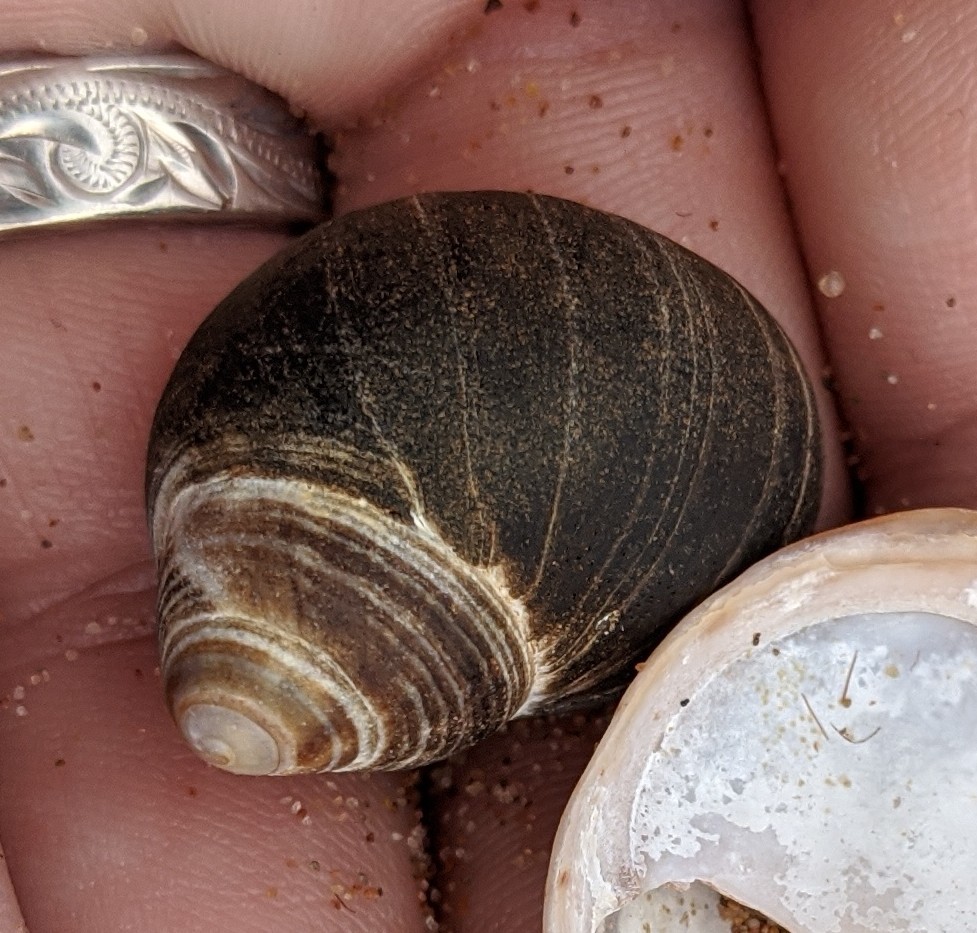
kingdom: Animalia
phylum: Mollusca
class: Gastropoda
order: Littorinimorpha
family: Littorinidae
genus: Littorina
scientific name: Littorina littorea
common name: Common periwinkle
